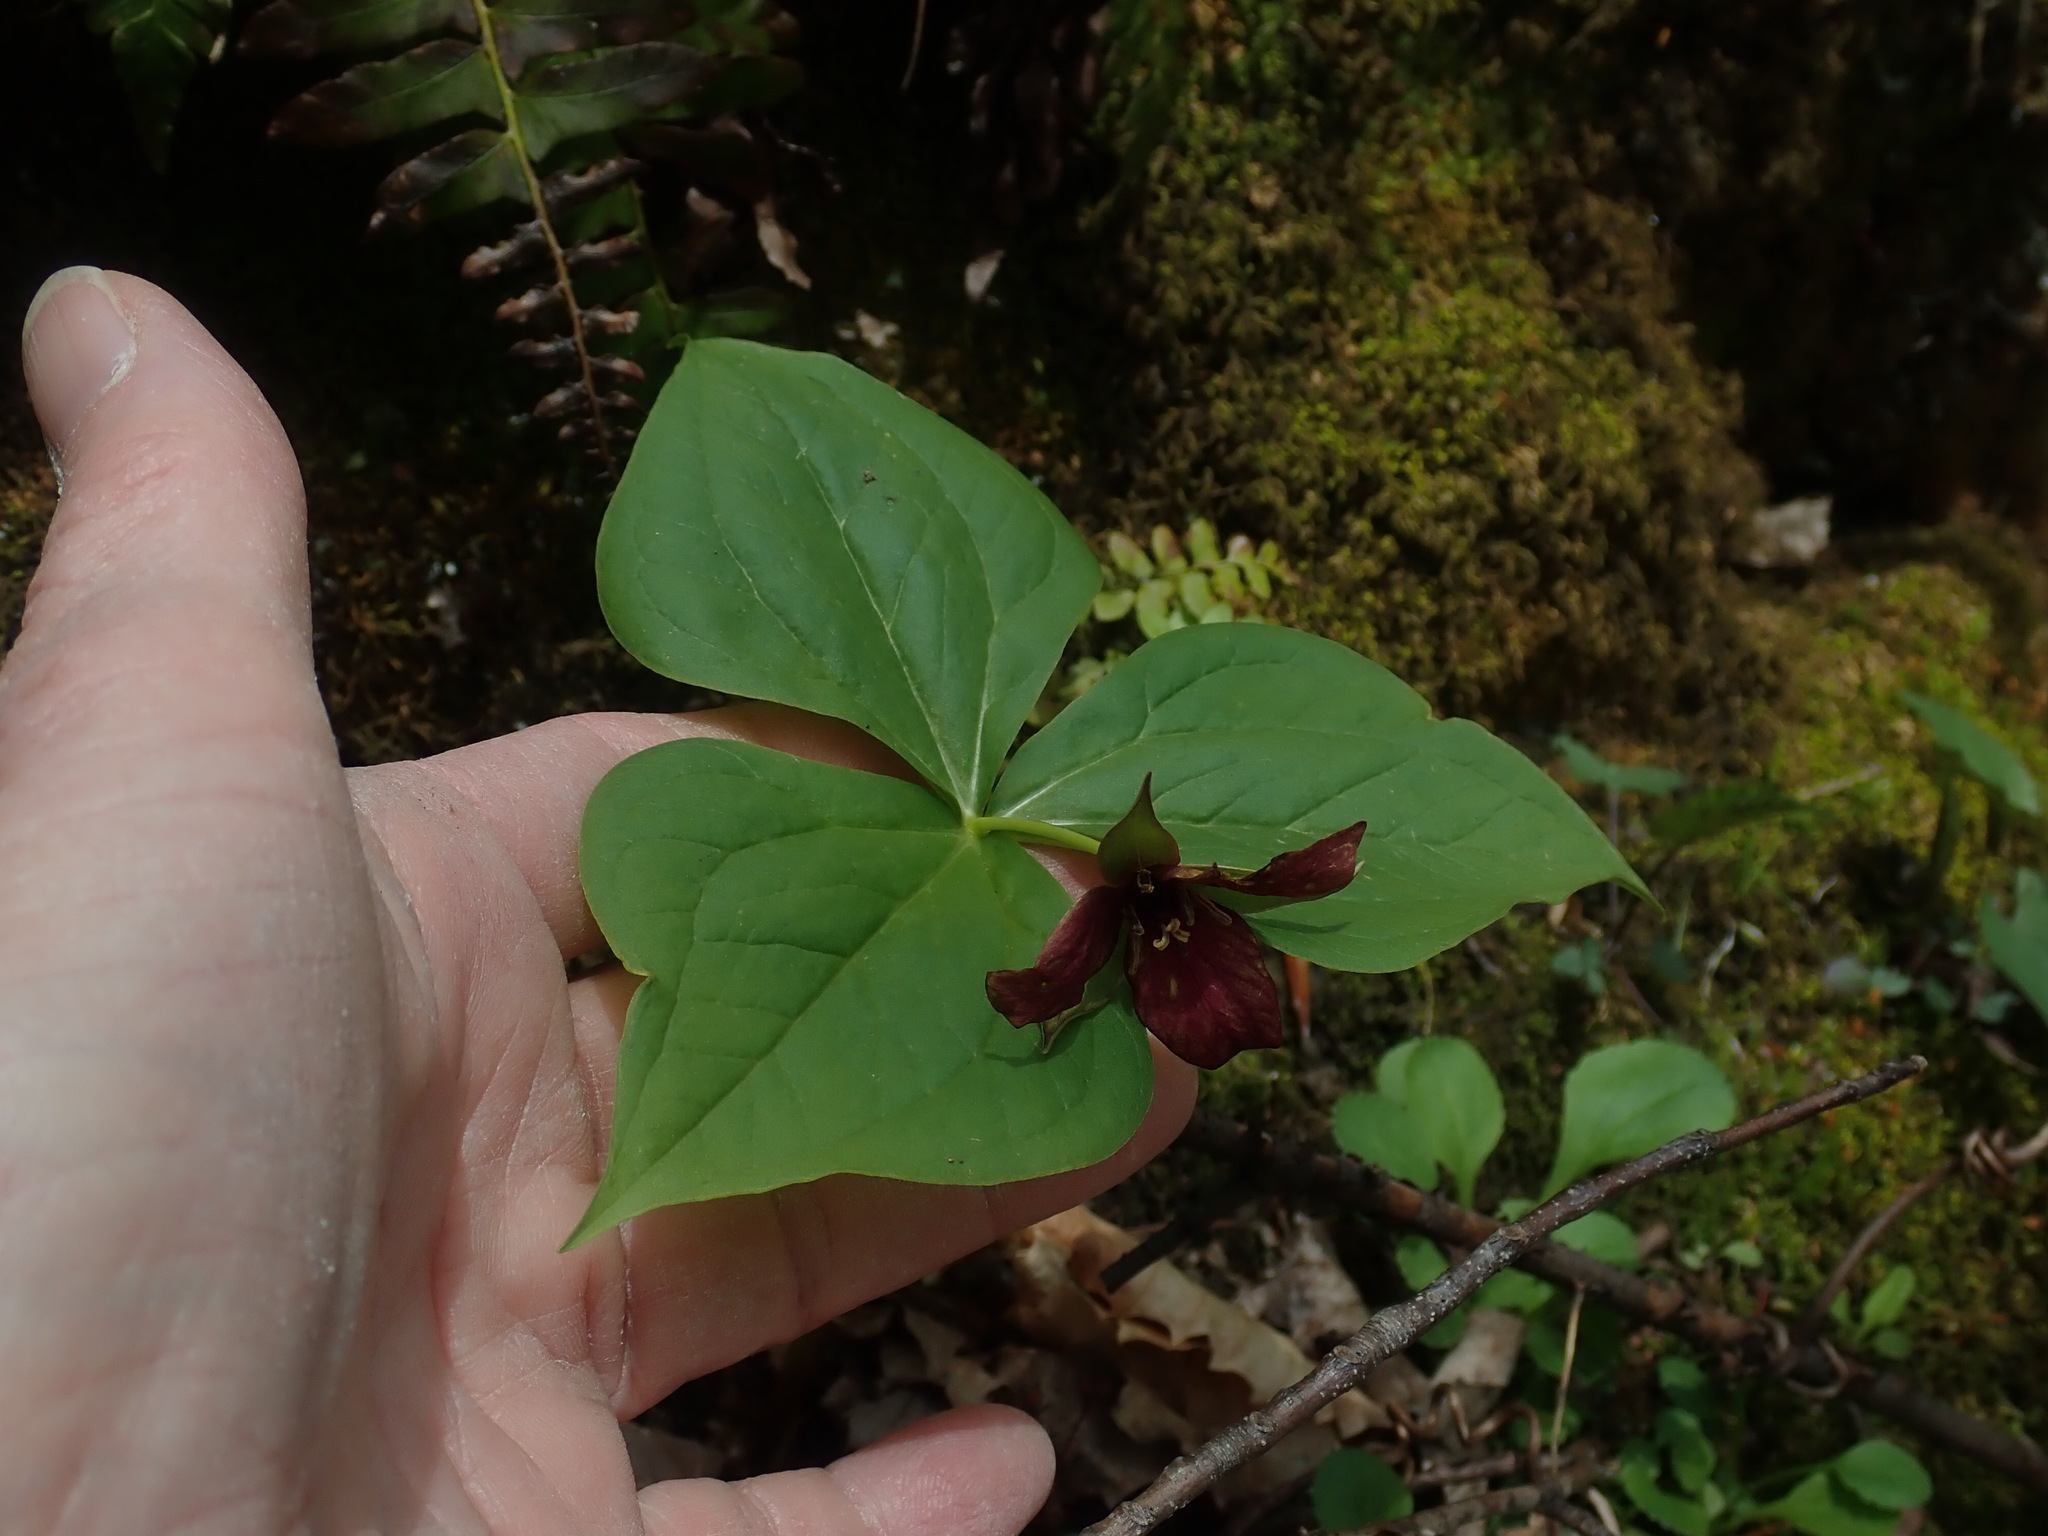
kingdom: Plantae
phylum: Tracheophyta
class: Liliopsida
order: Liliales
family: Melanthiaceae
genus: Trillium
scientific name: Trillium erectum
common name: Purple trillium
